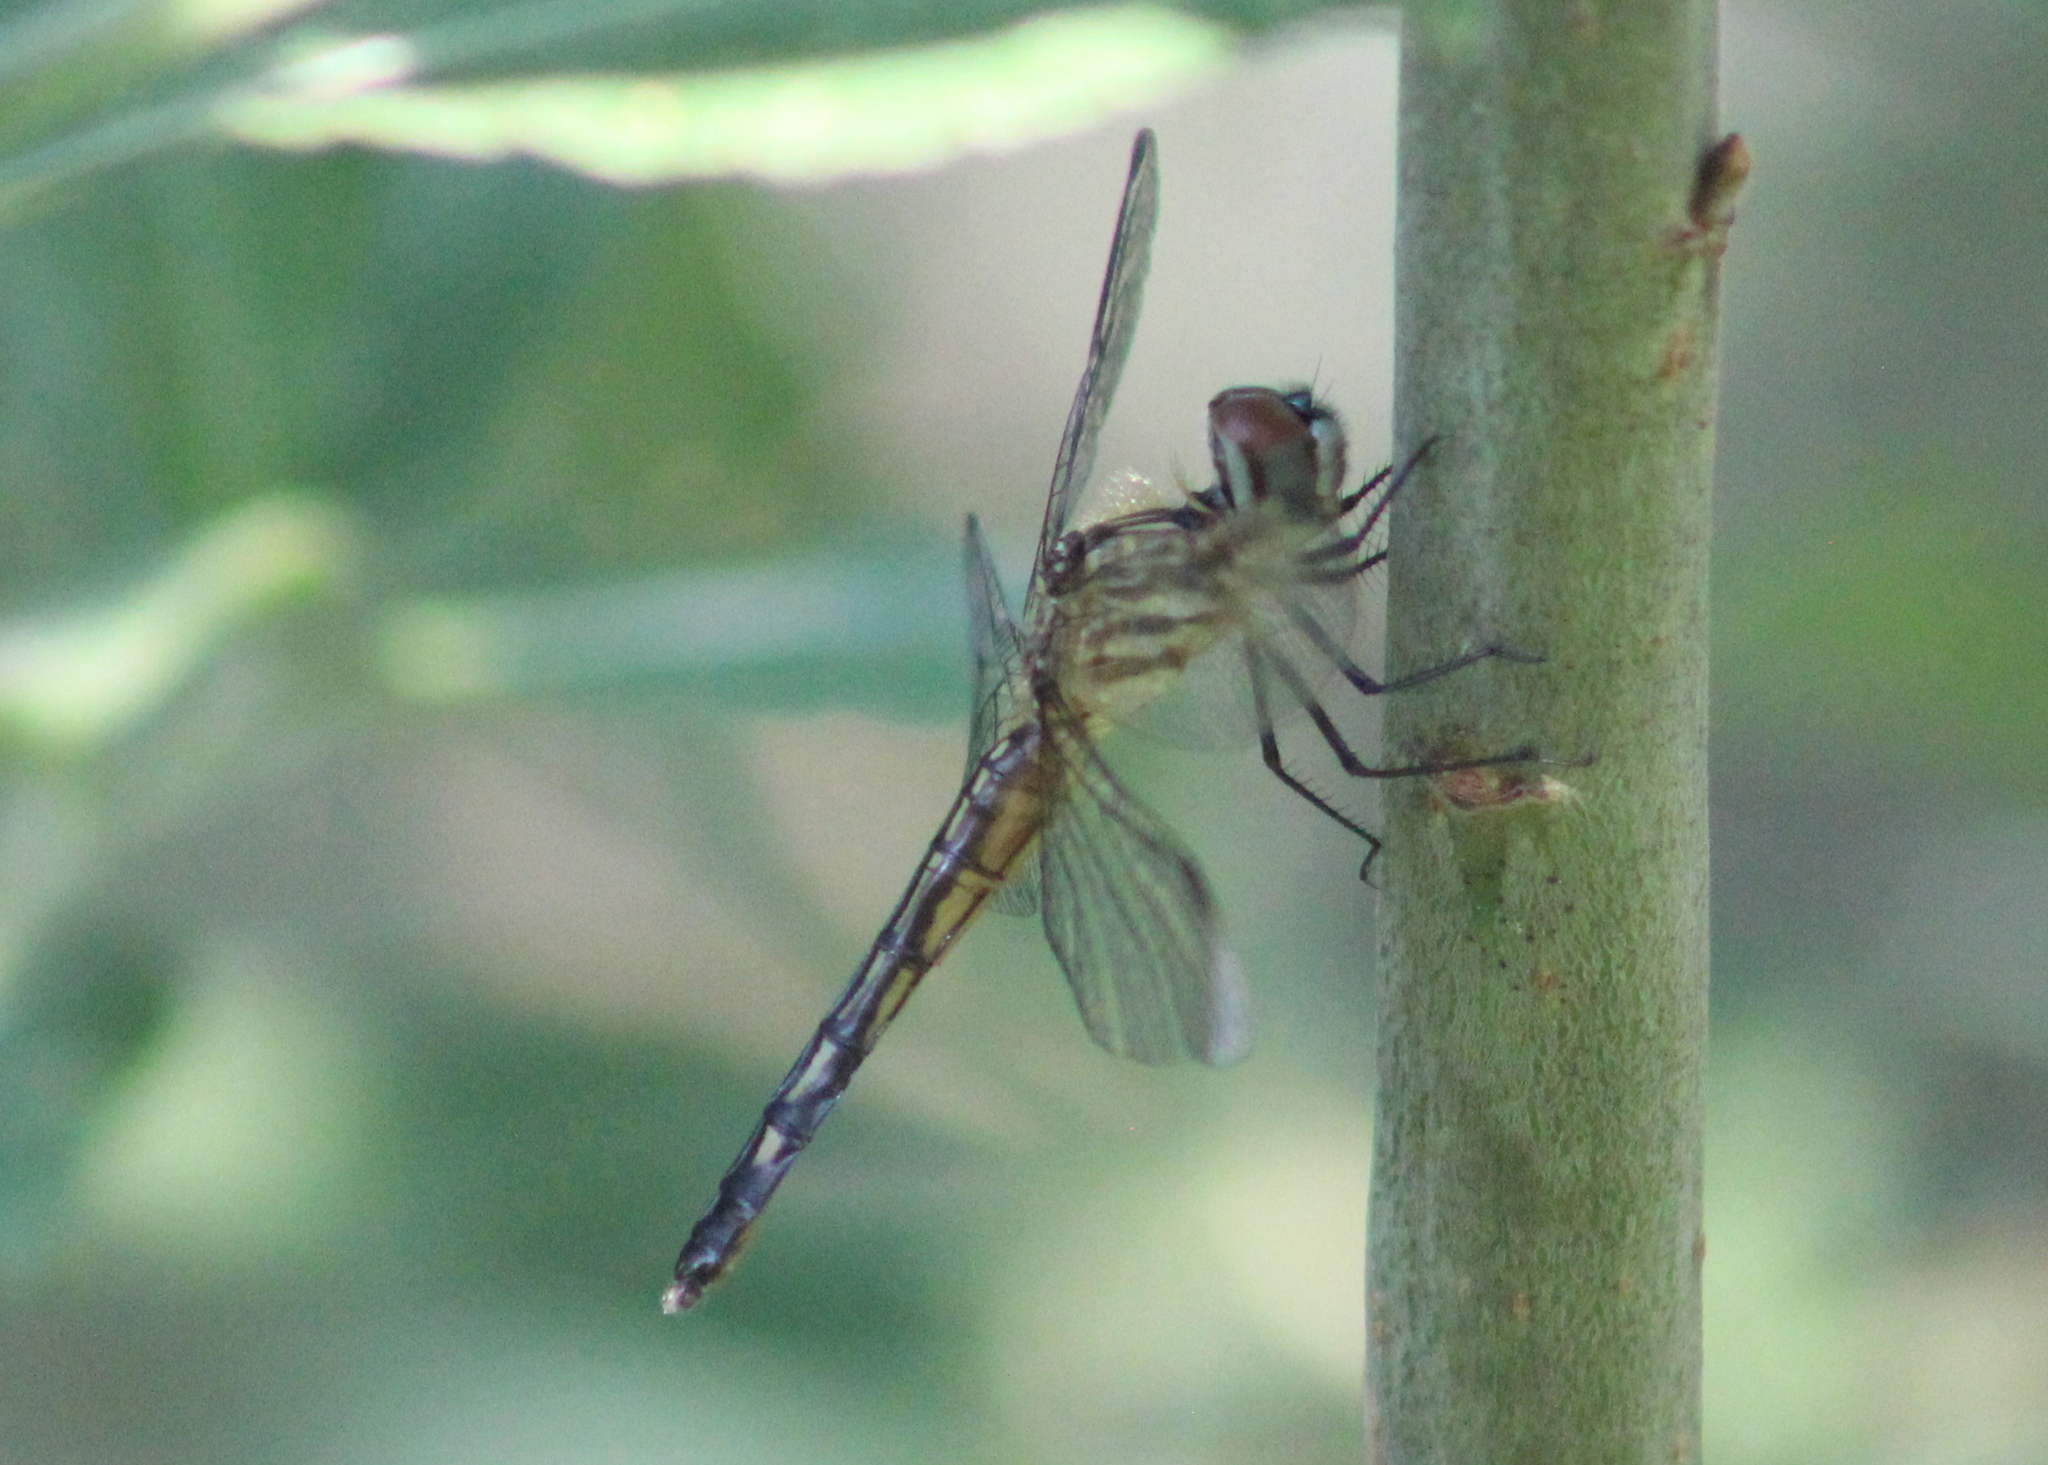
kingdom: Animalia
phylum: Arthropoda
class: Insecta
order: Odonata
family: Libellulidae
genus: Pachydiplax
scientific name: Pachydiplax longipennis
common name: Blue dasher
